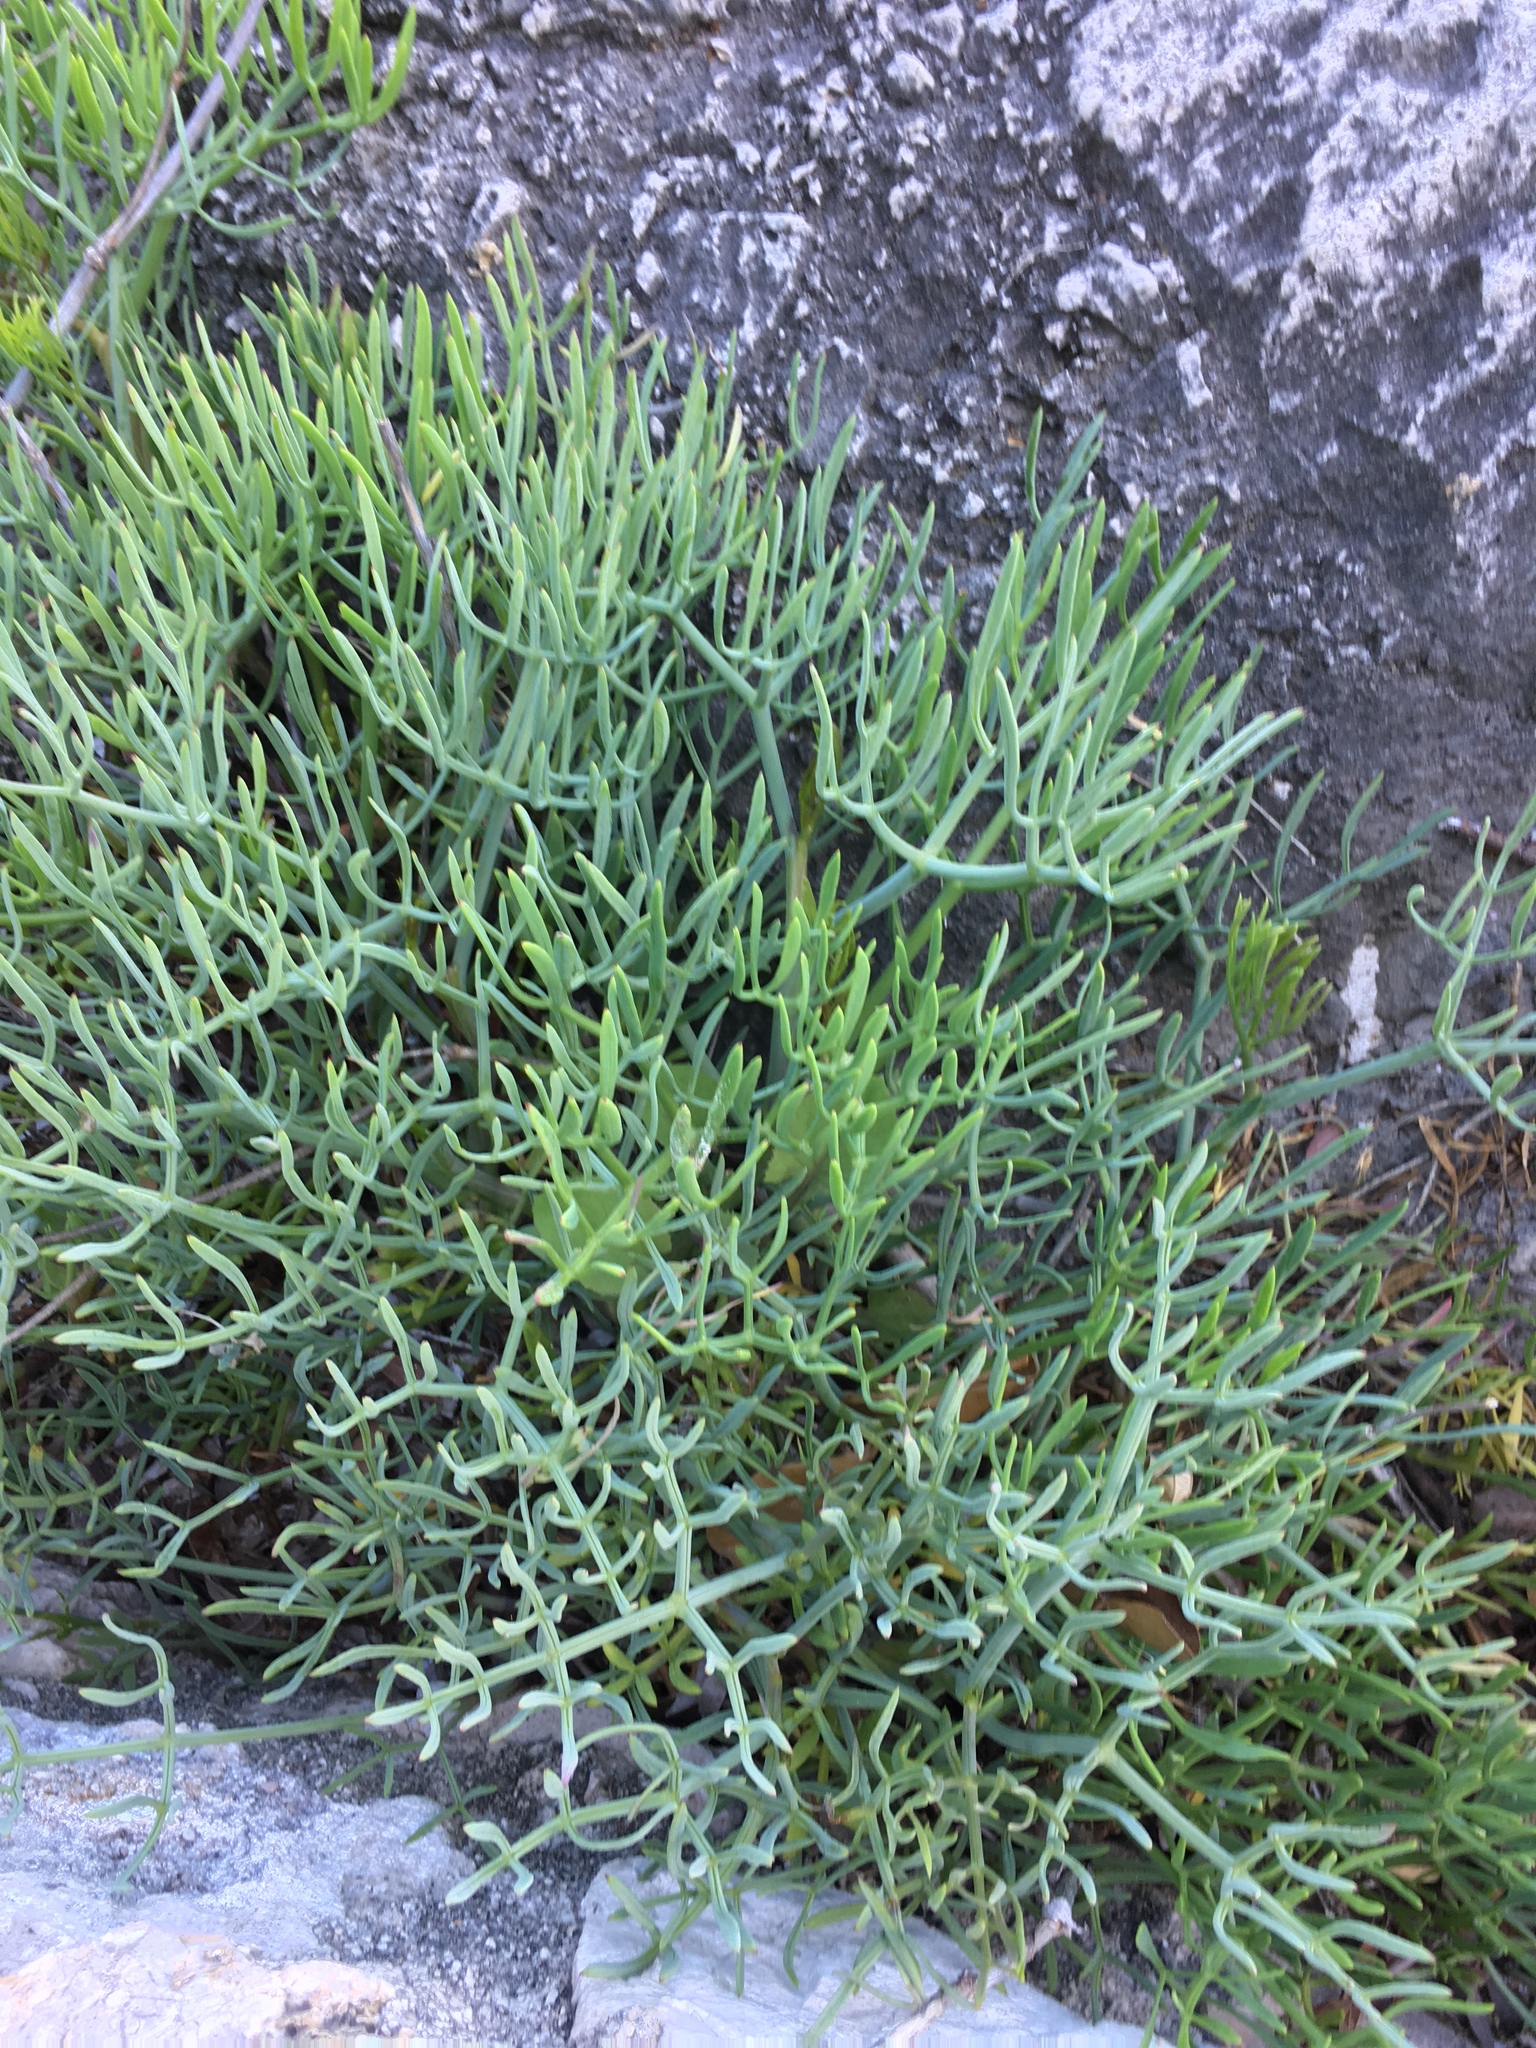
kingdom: Plantae
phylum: Tracheophyta
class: Magnoliopsida
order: Apiales
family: Apiaceae
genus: Crithmum
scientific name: Crithmum maritimum
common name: Rock samphire
